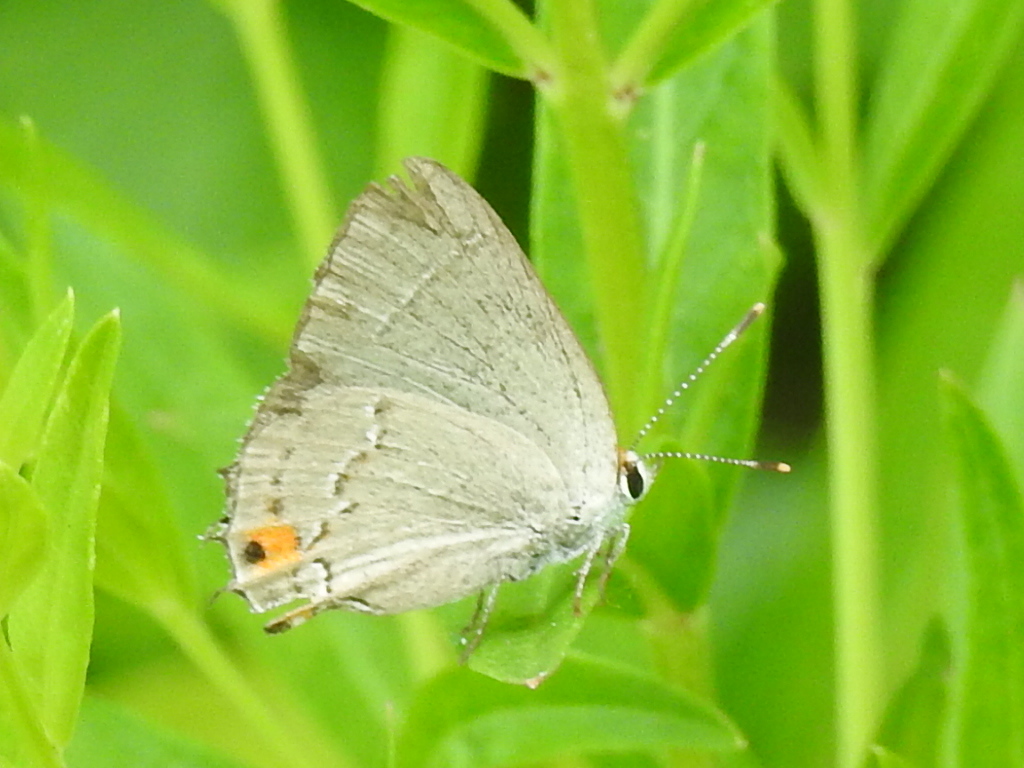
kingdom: Animalia
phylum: Arthropoda
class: Insecta
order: Lepidoptera
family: Lycaenidae
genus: Strymon
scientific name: Strymon melinus
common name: Gray hairstreak
